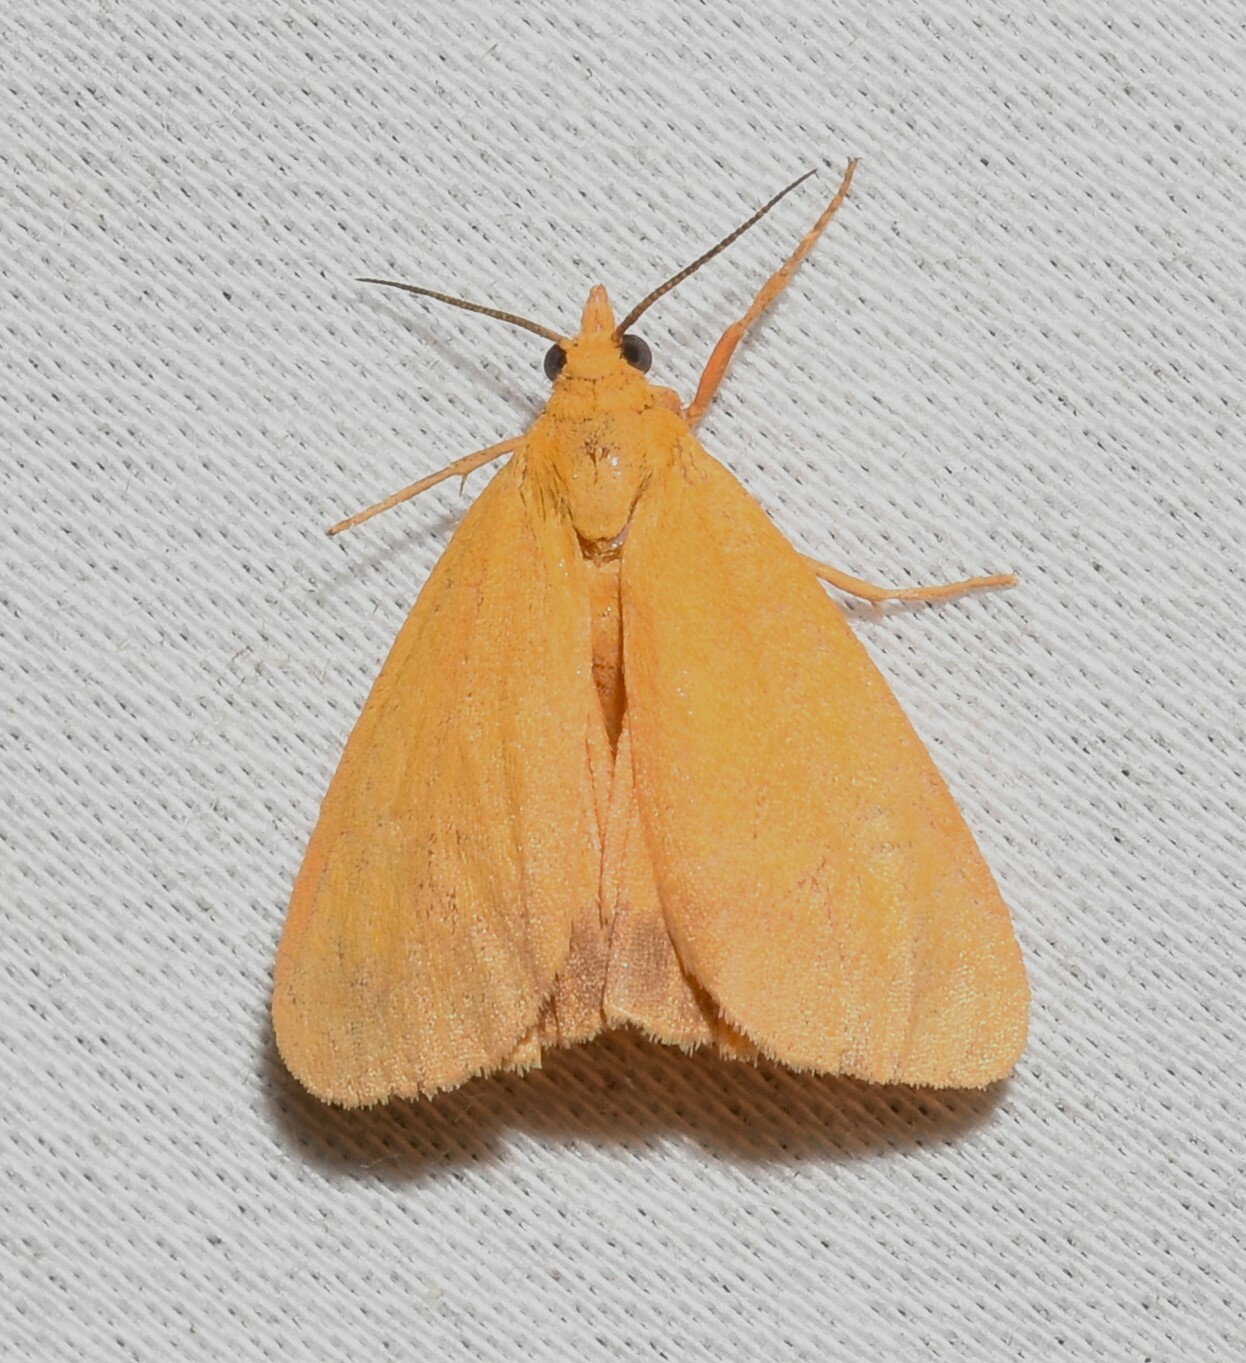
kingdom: Animalia
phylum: Arthropoda
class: Insecta
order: Lepidoptera
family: Erebidae
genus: Virbia
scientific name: Virbia aurantiaca
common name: Orange virbia moth
